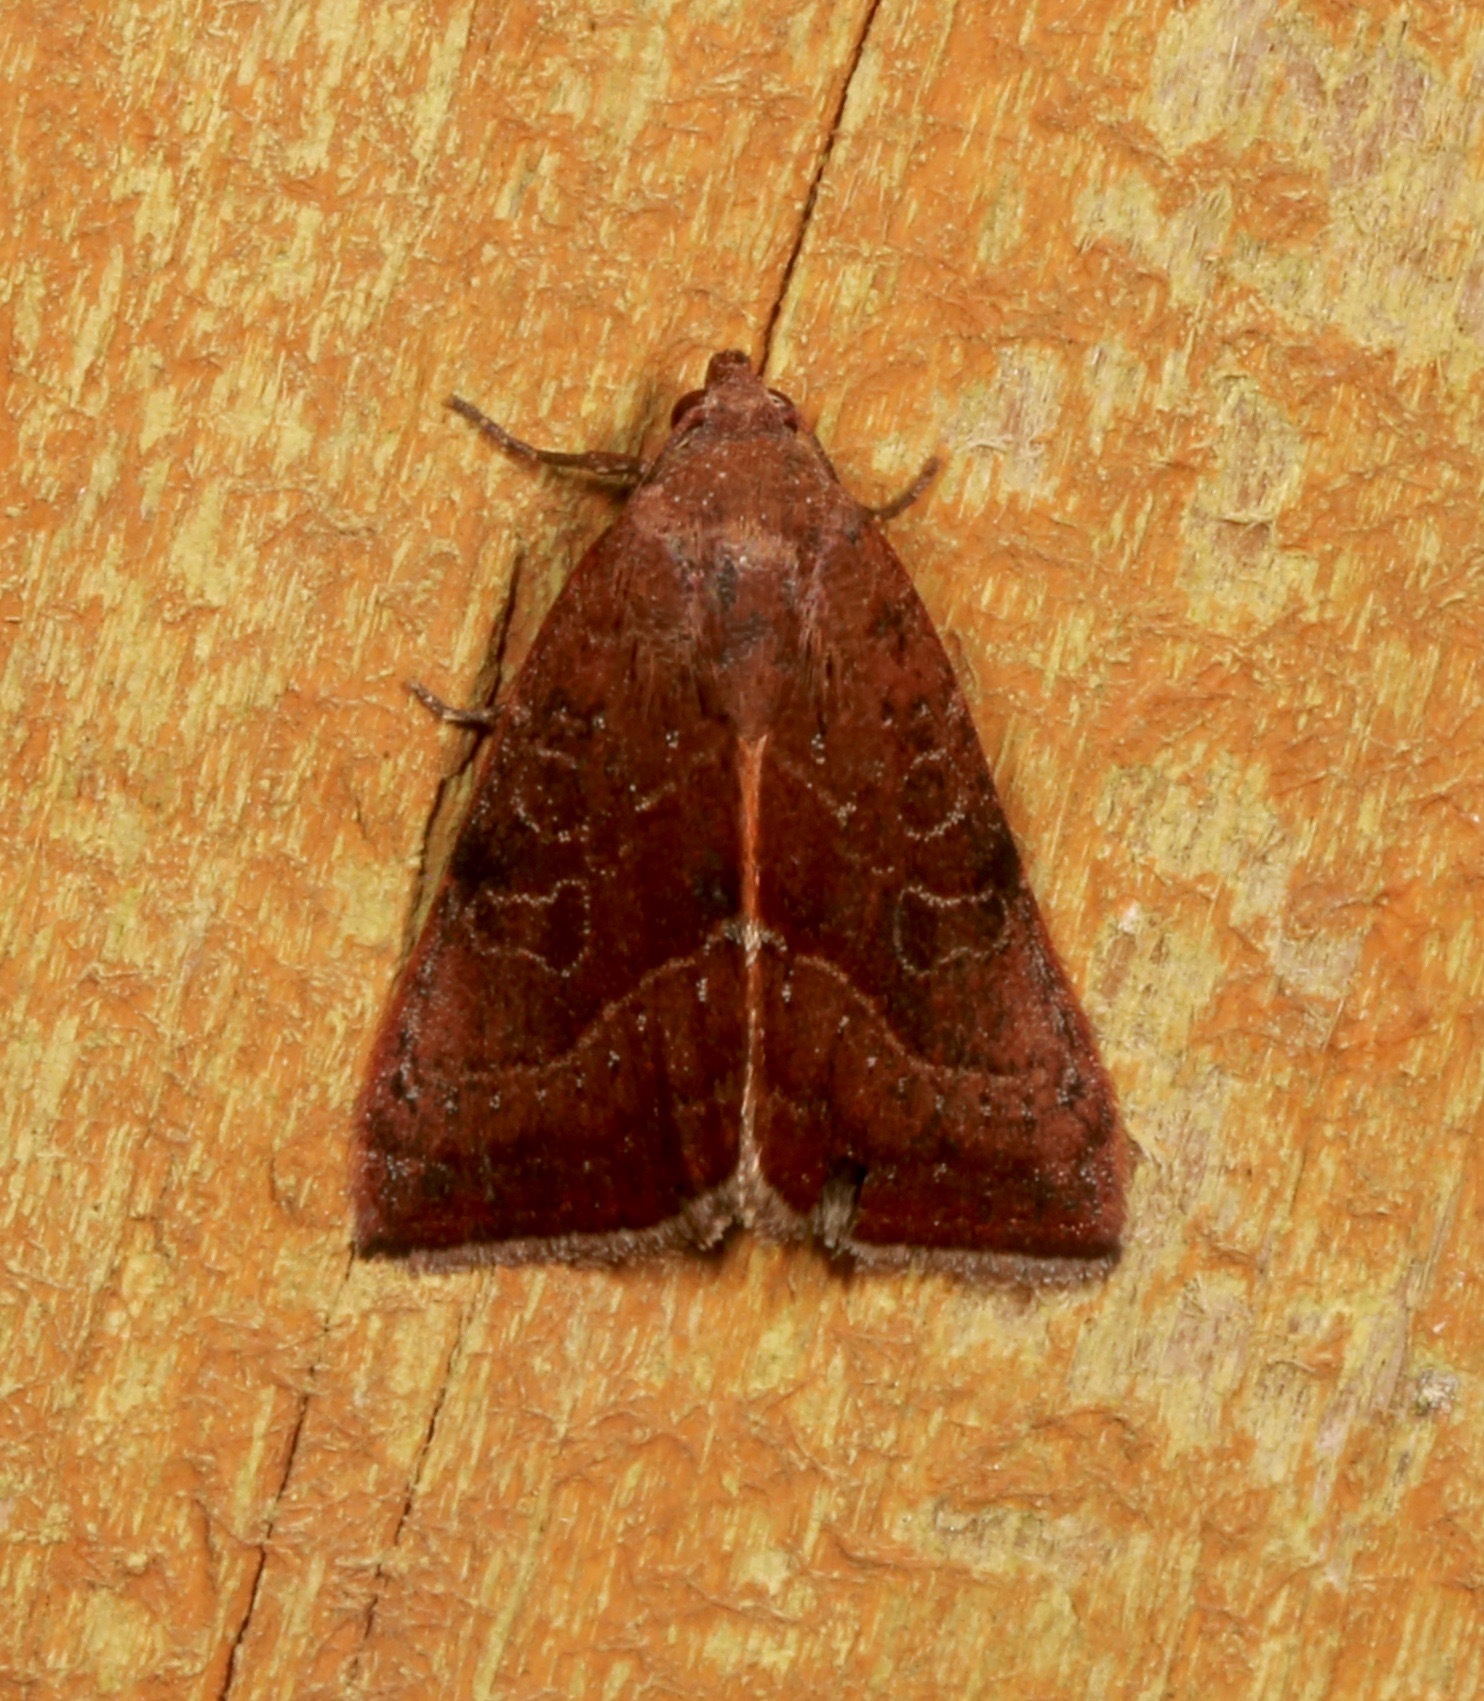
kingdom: Animalia
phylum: Arthropoda
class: Insecta
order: Lepidoptera
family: Noctuidae
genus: Galgula
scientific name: Galgula partita
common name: Wedgeling
